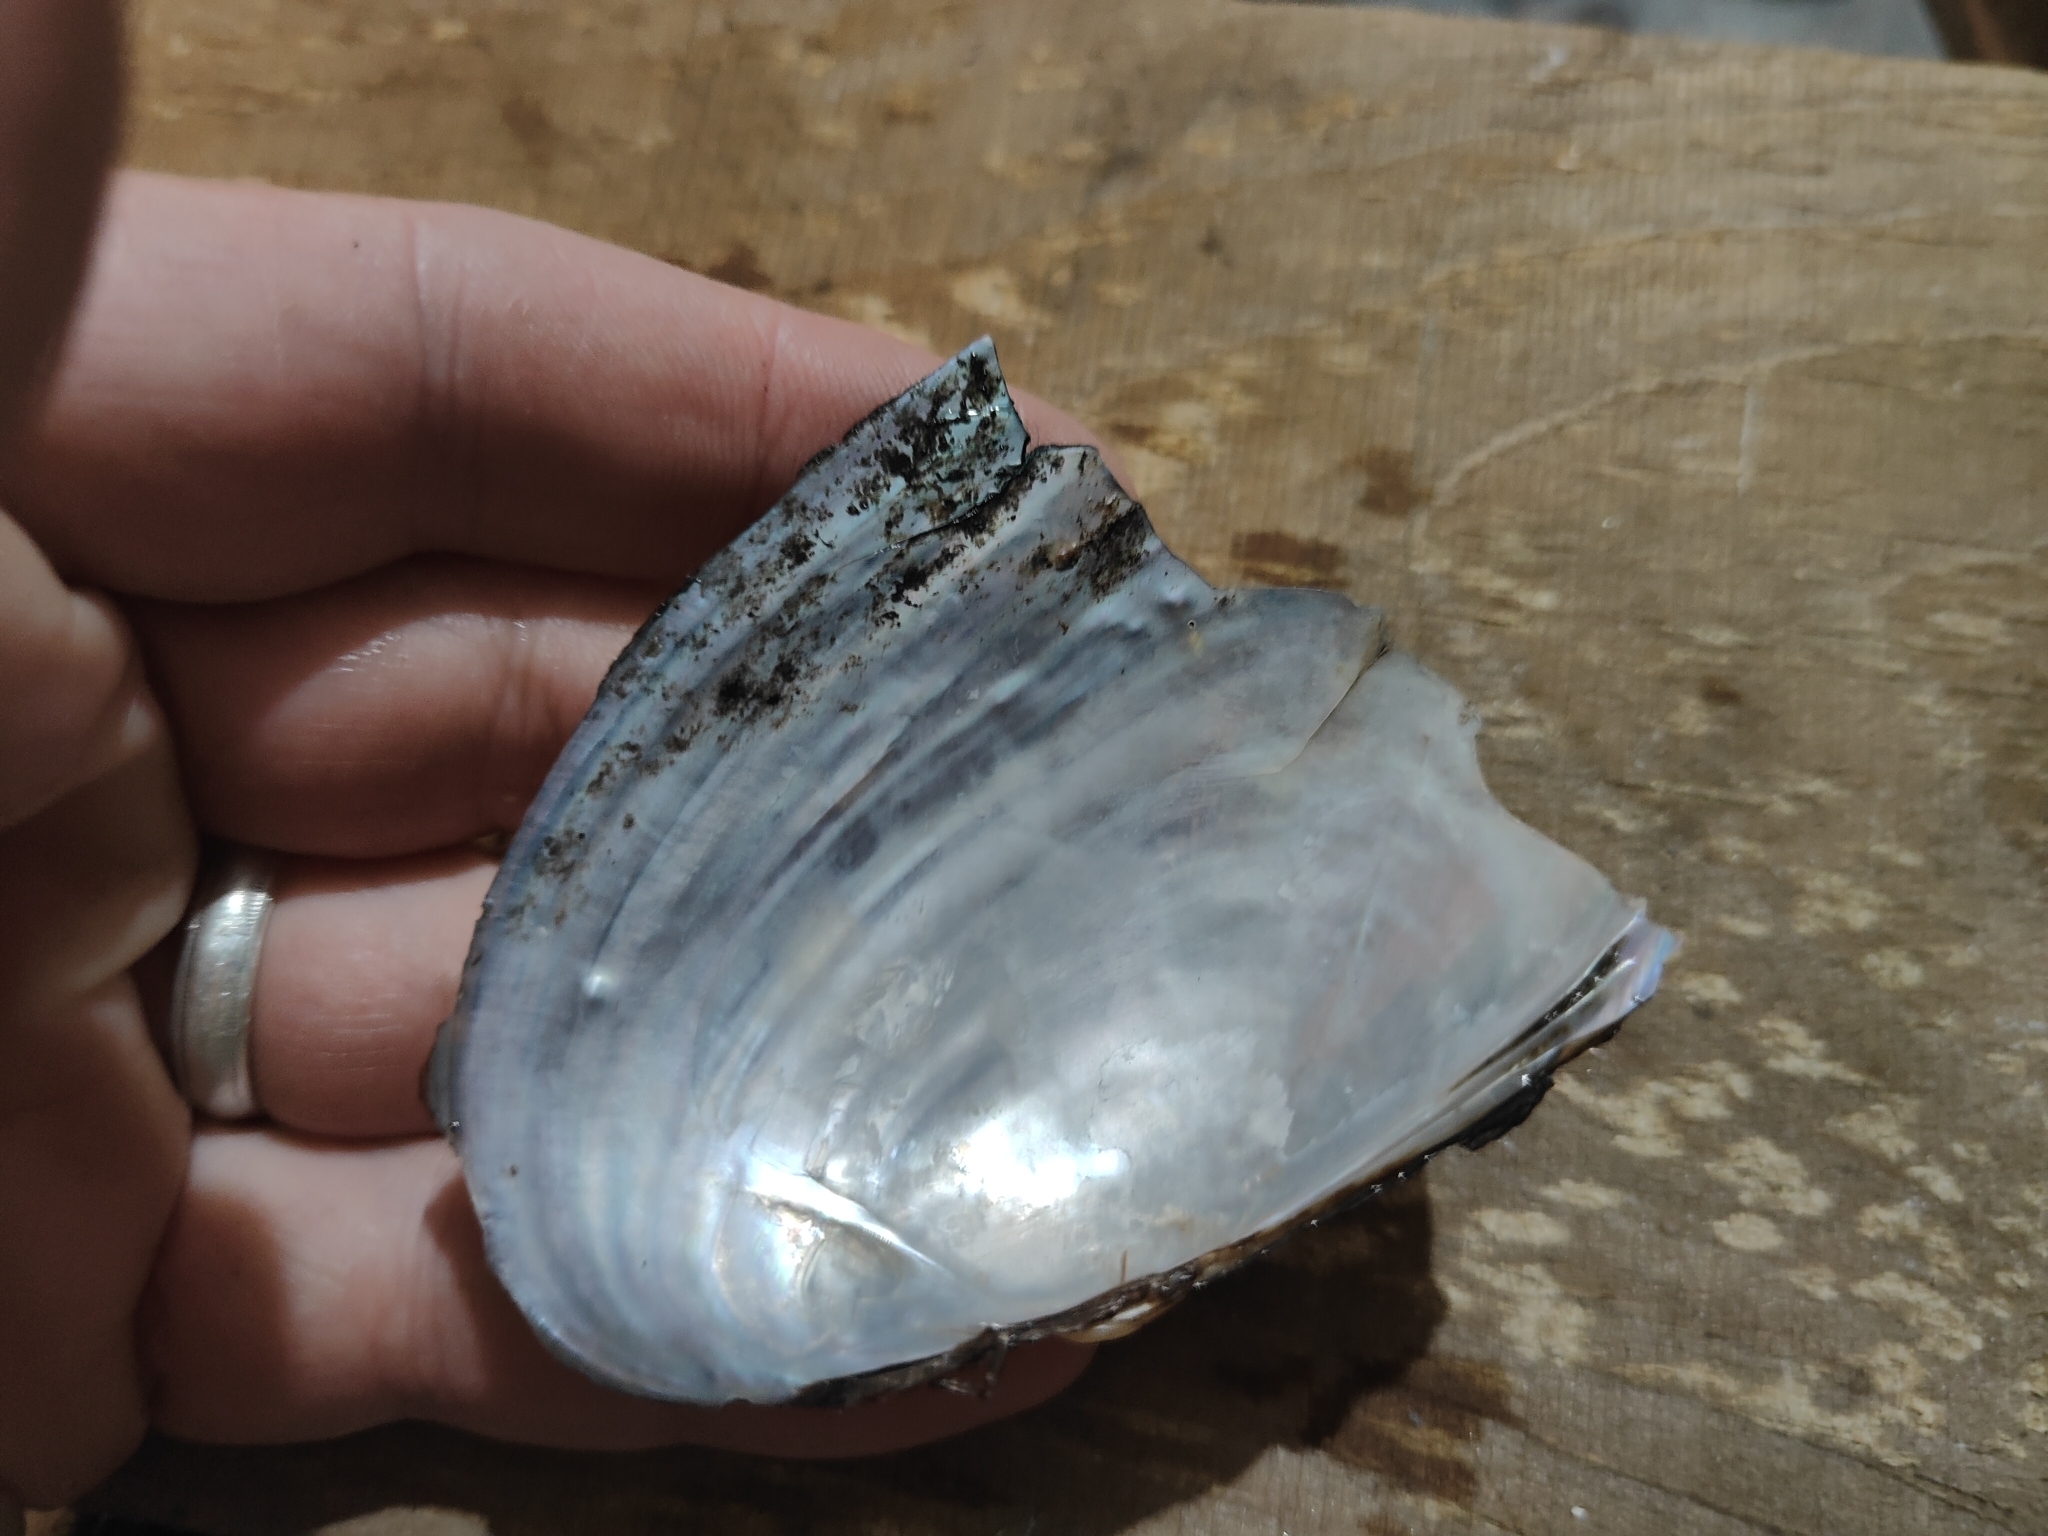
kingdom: Animalia
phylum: Mollusca
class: Bivalvia
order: Unionida
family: Unionidae
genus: Potamilus
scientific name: Potamilus fragilis
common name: Fragile papershell
